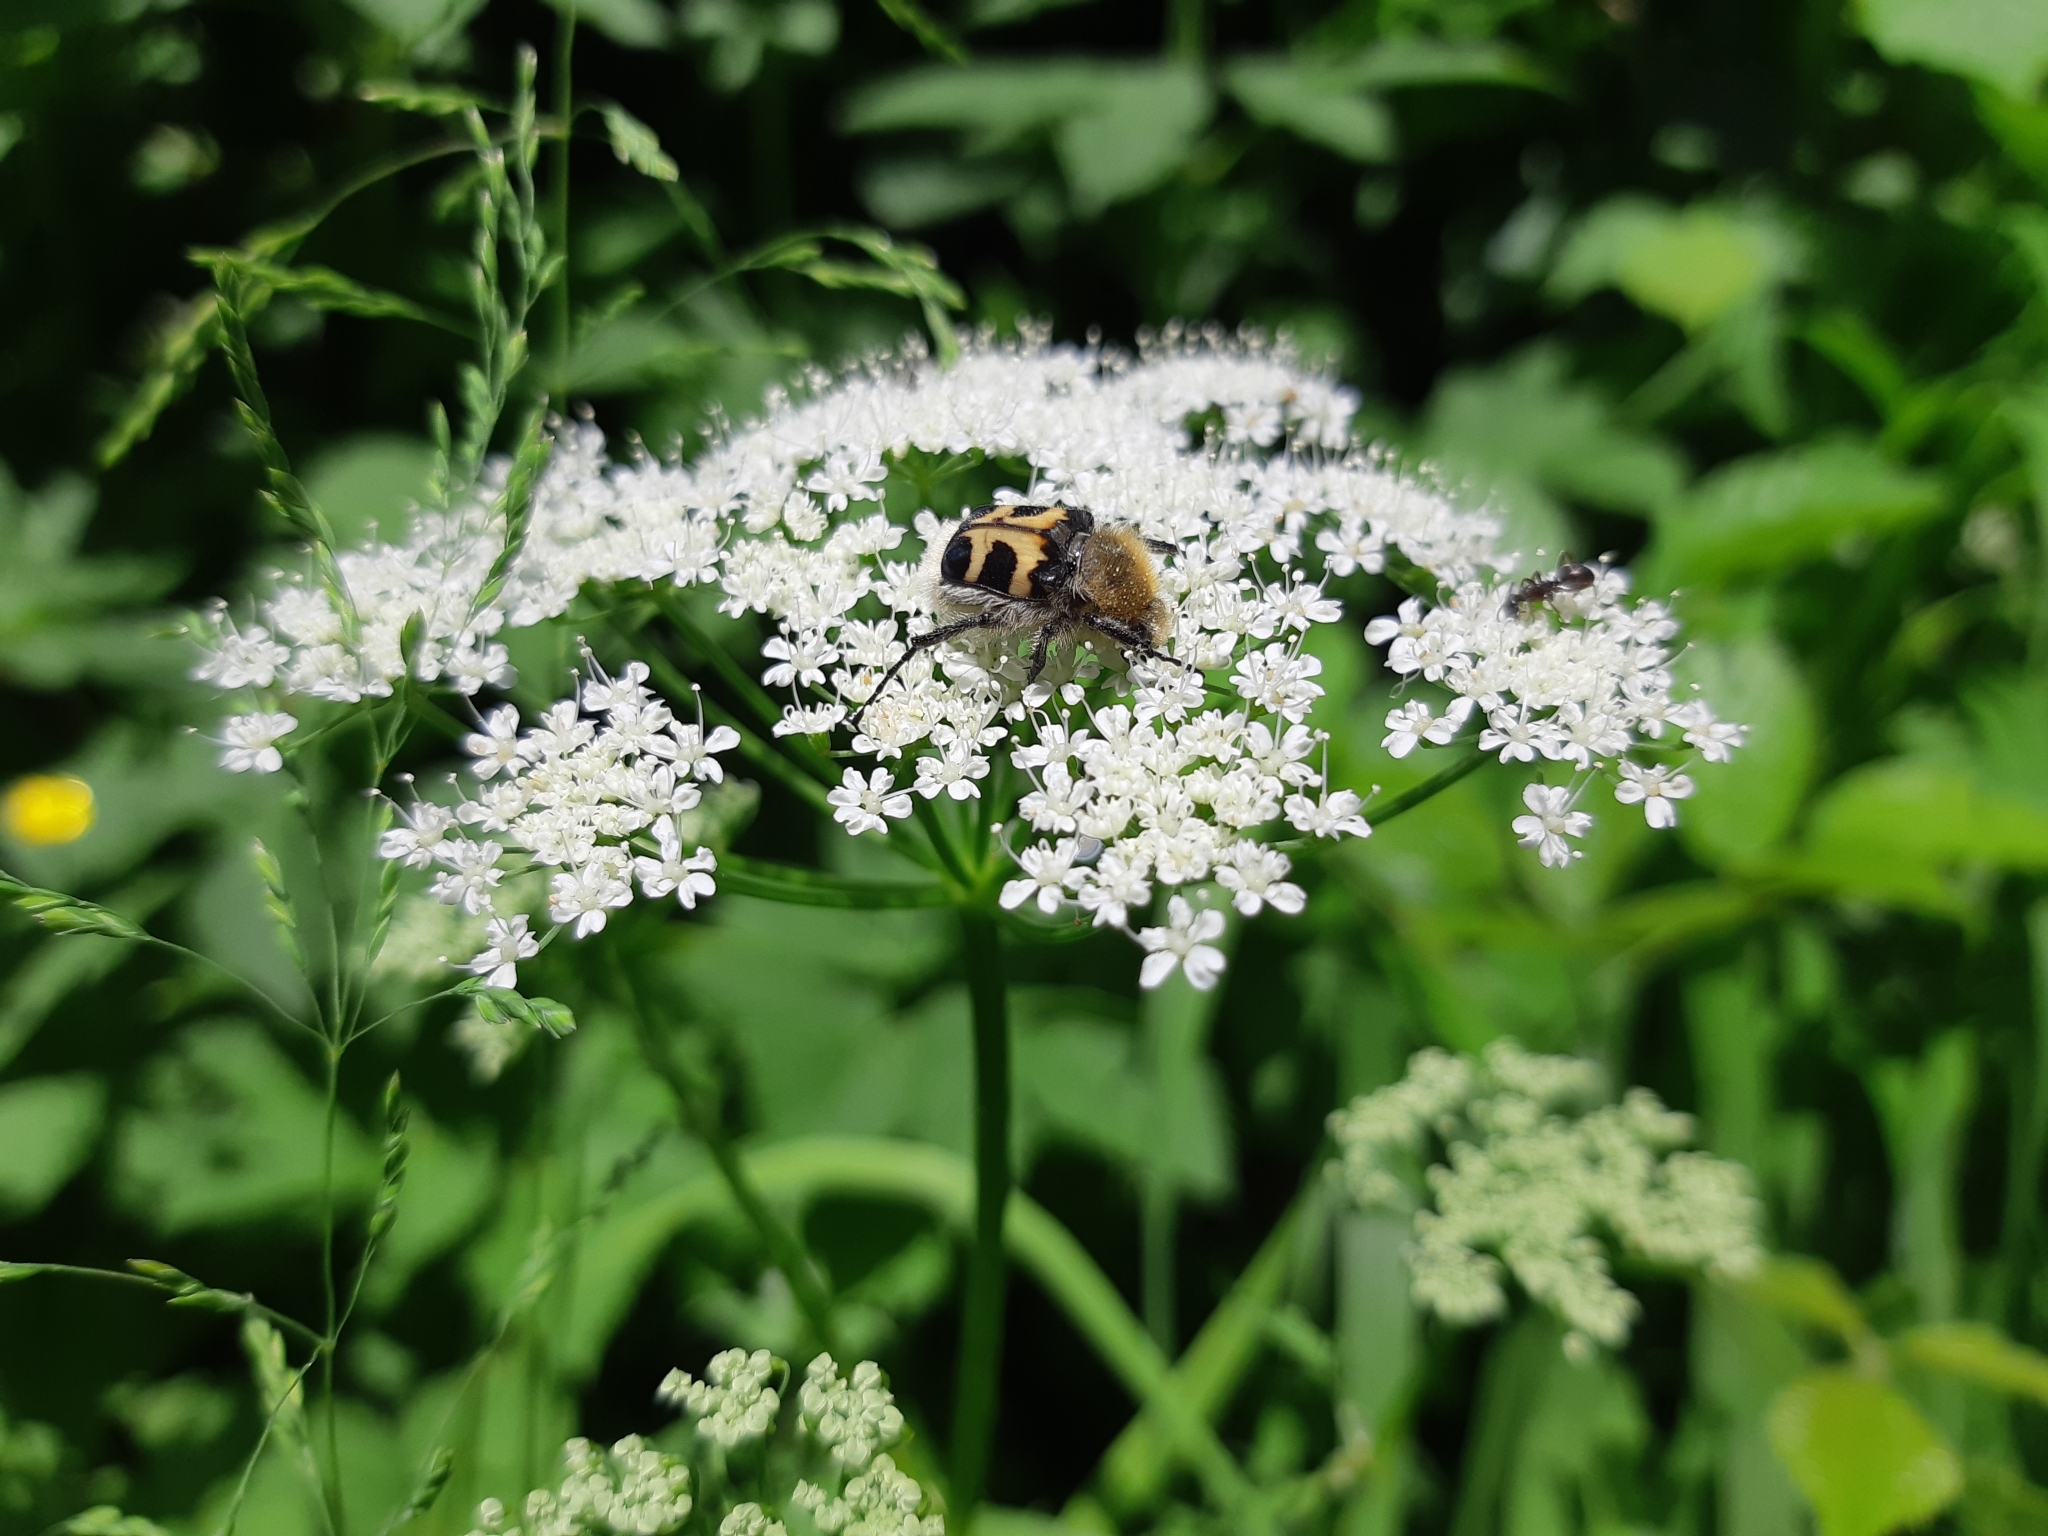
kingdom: Animalia
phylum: Arthropoda
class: Insecta
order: Coleoptera
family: Scarabaeidae
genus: Trichius
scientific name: Trichius fasciatus
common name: Bee beetle
